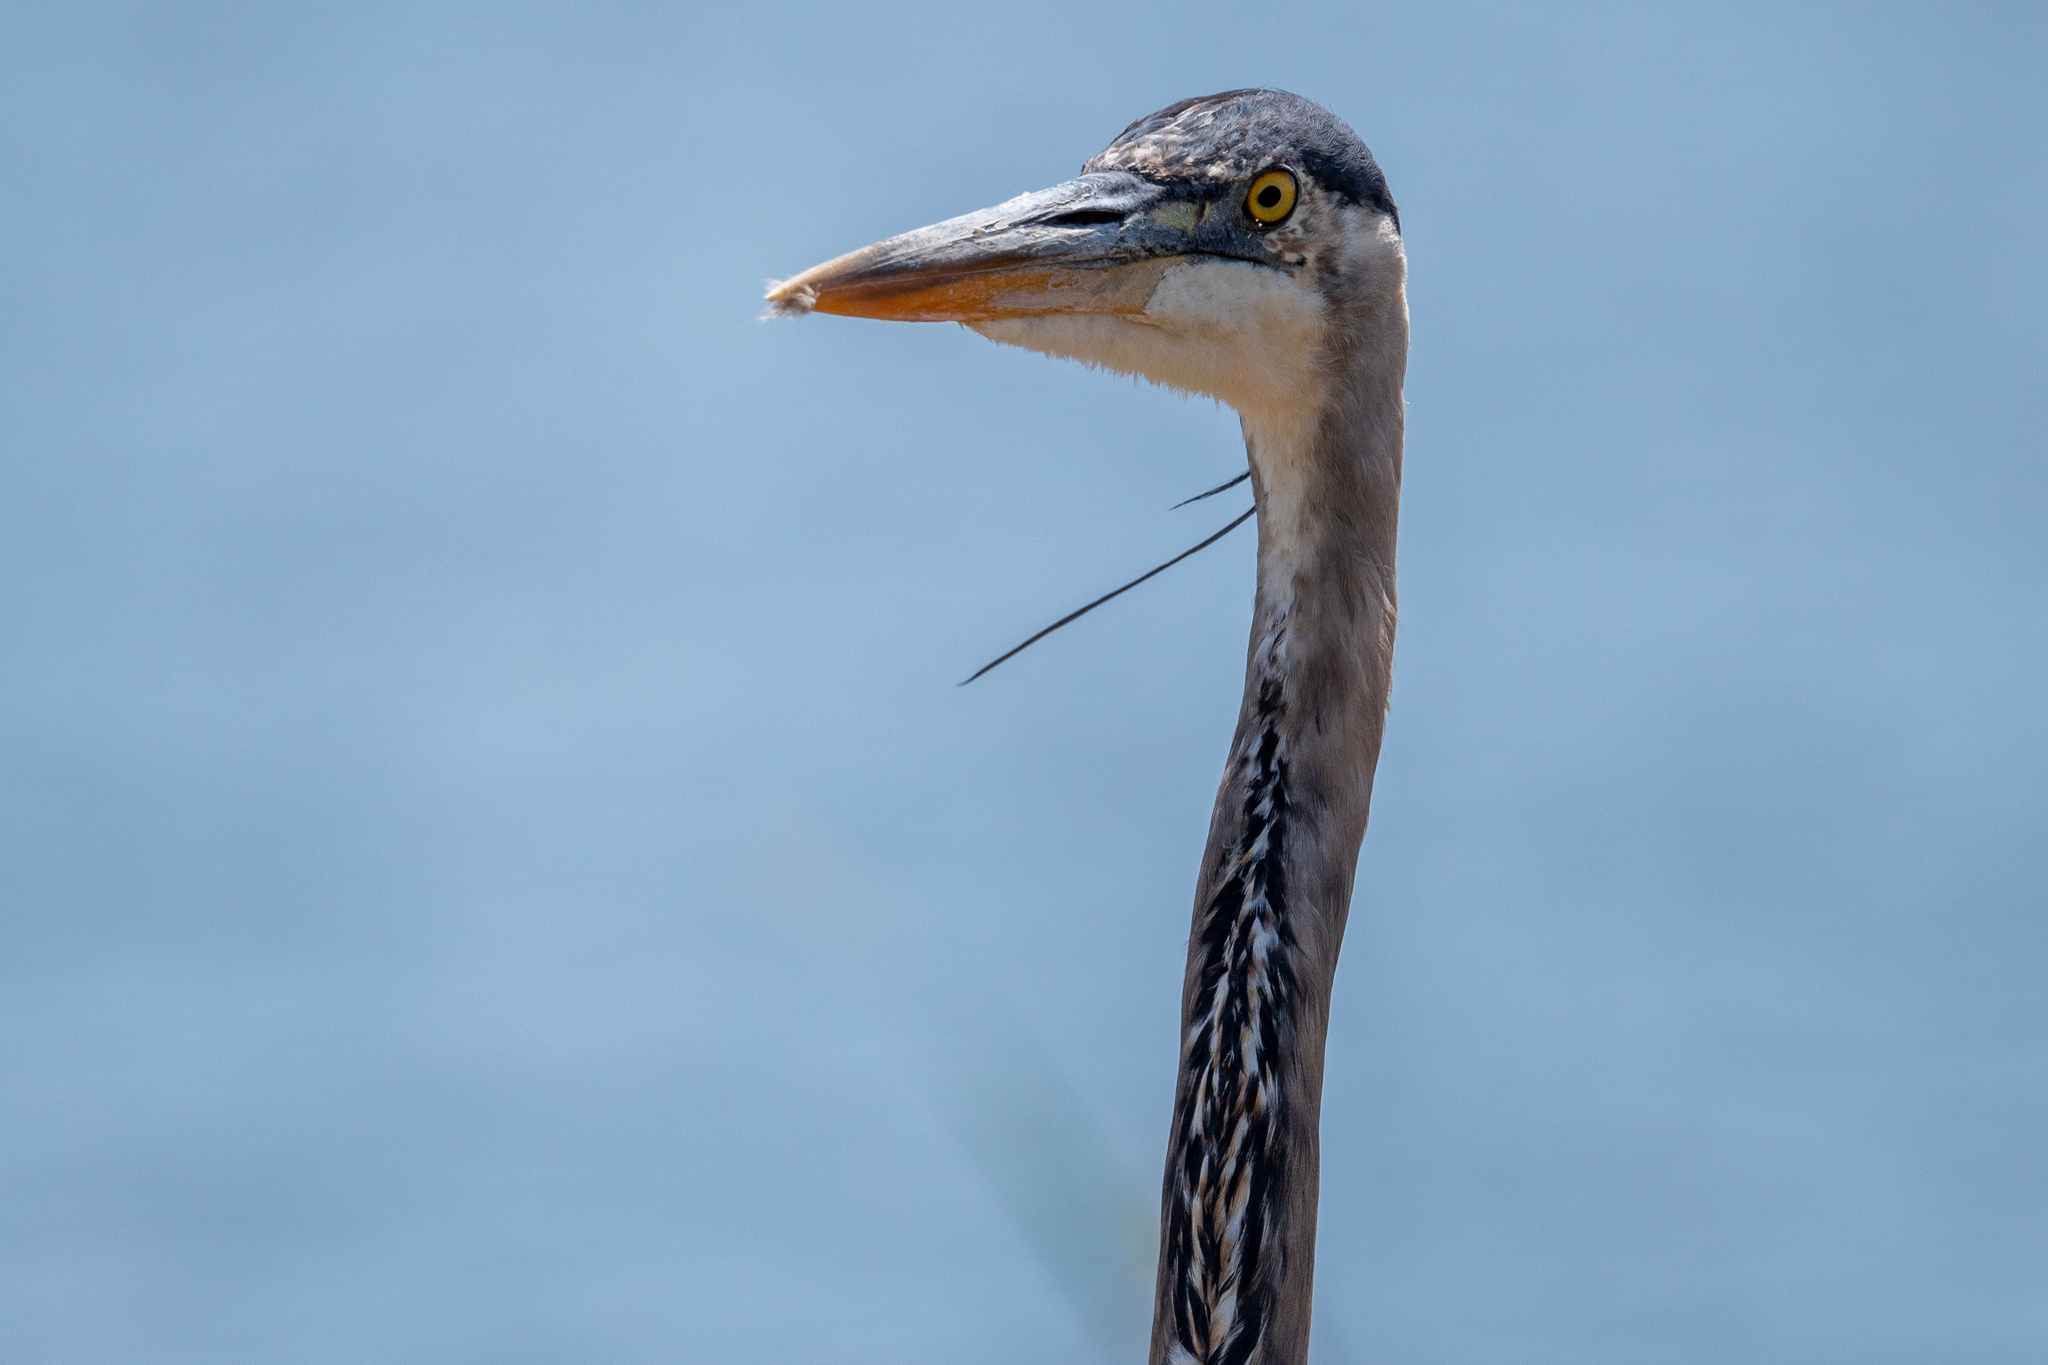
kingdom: Animalia
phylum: Chordata
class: Aves
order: Pelecaniformes
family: Ardeidae
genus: Ardea
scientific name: Ardea herodias
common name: Great blue heron
